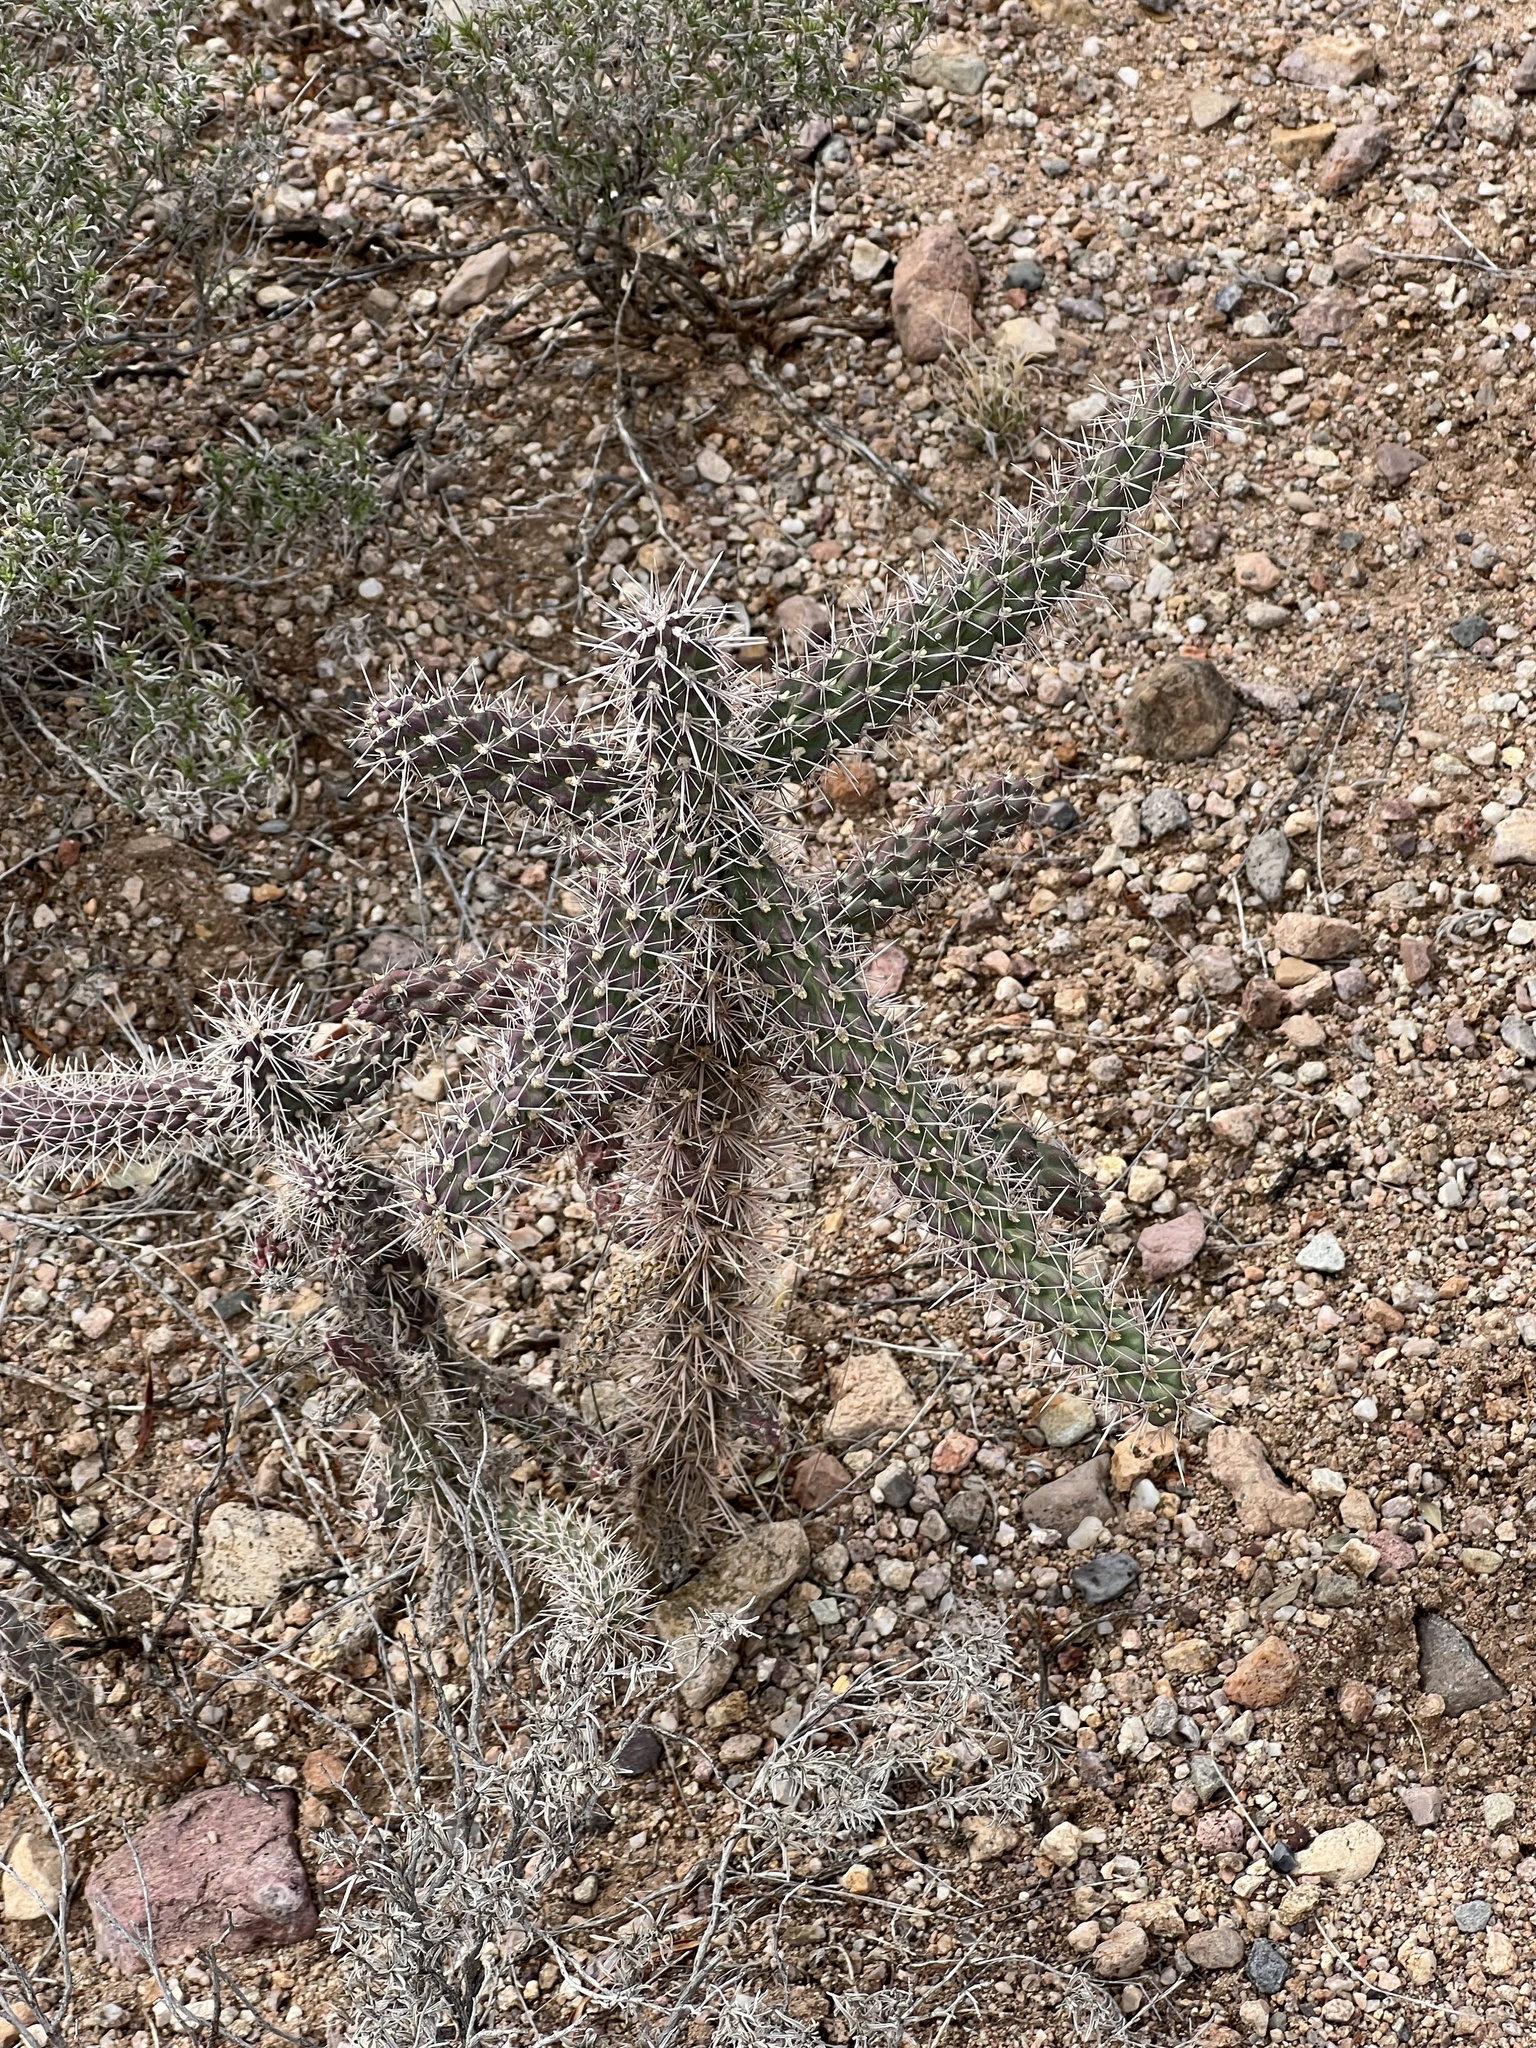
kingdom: Plantae
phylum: Tracheophyta
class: Magnoliopsida
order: Caryophyllales
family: Cactaceae
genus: Cylindropuntia
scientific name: Cylindropuntia imbricata
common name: Candelabrum cactus
